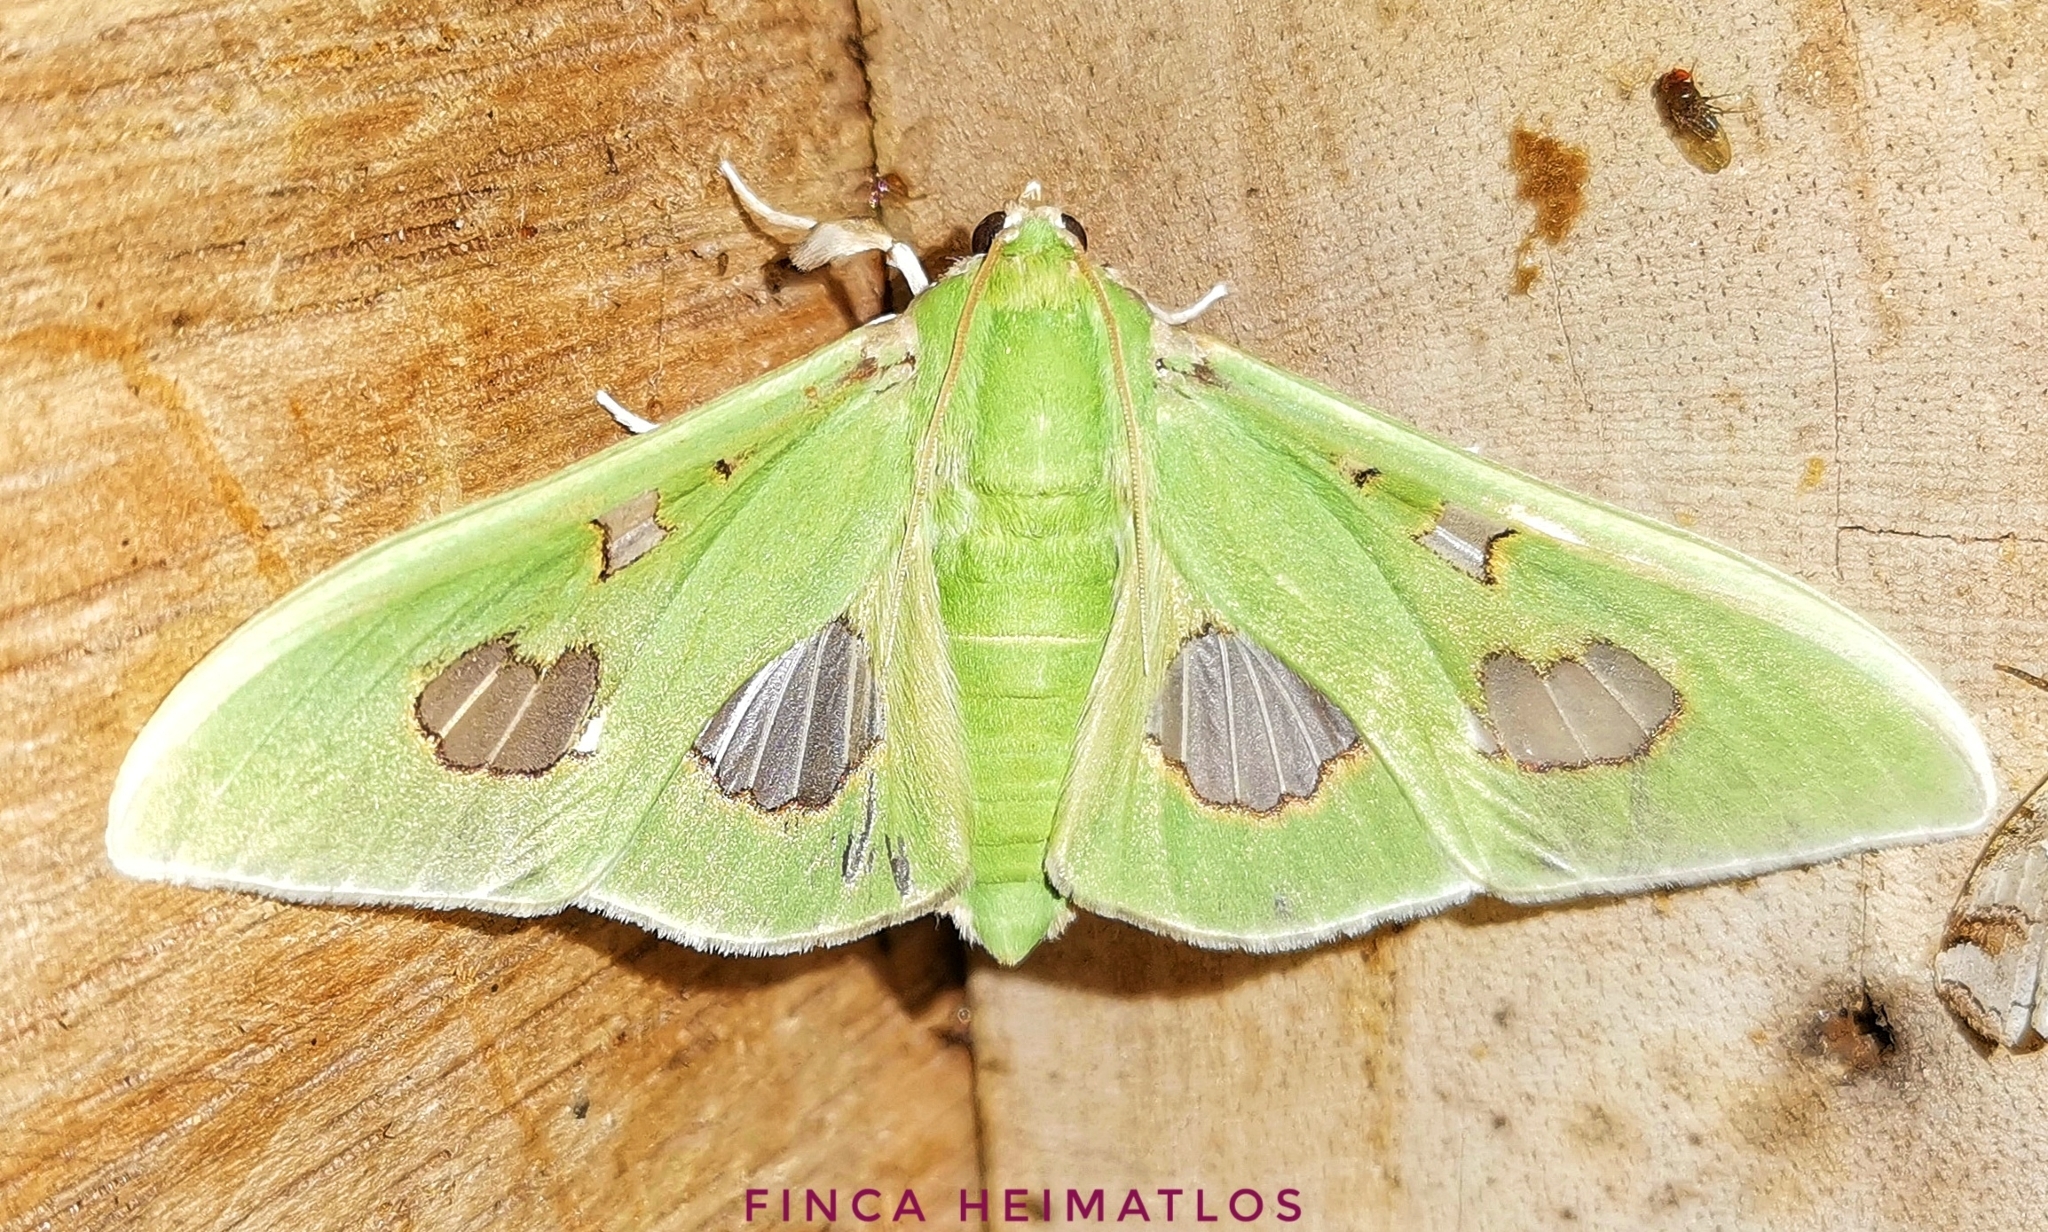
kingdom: Animalia
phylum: Arthropoda
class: Insecta
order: Lepidoptera
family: Crambidae
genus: Siga
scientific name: Siga liris
